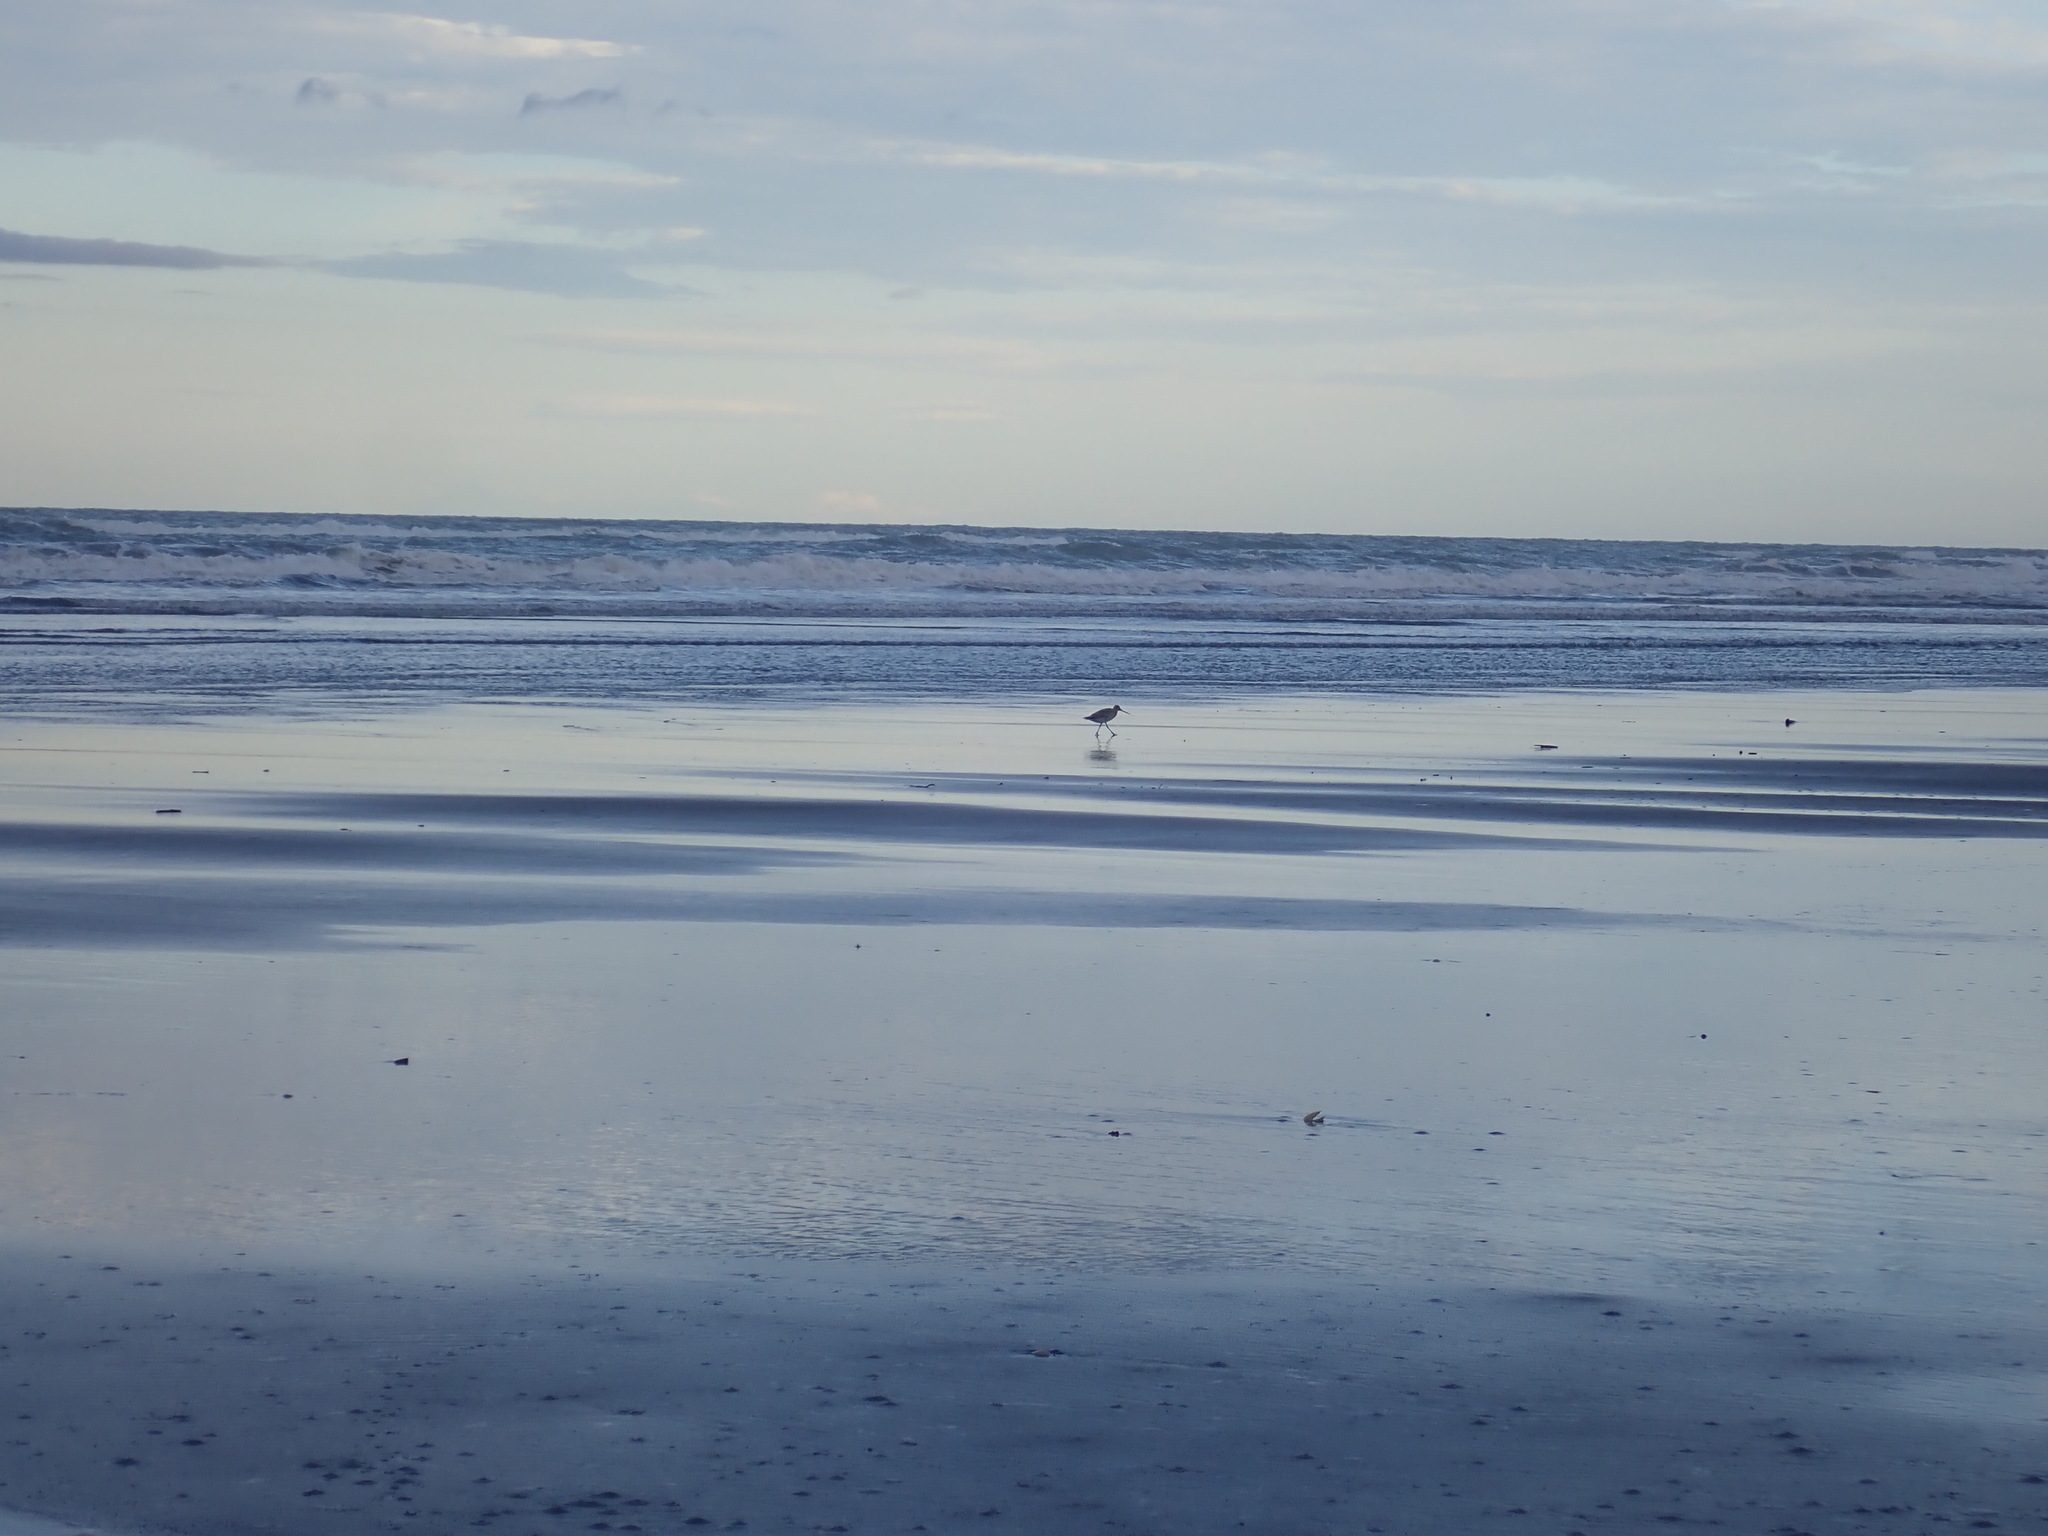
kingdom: Animalia
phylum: Chordata
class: Aves
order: Charadriiformes
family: Scolopacidae
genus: Limosa
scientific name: Limosa lapponica
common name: Bar-tailed godwit
